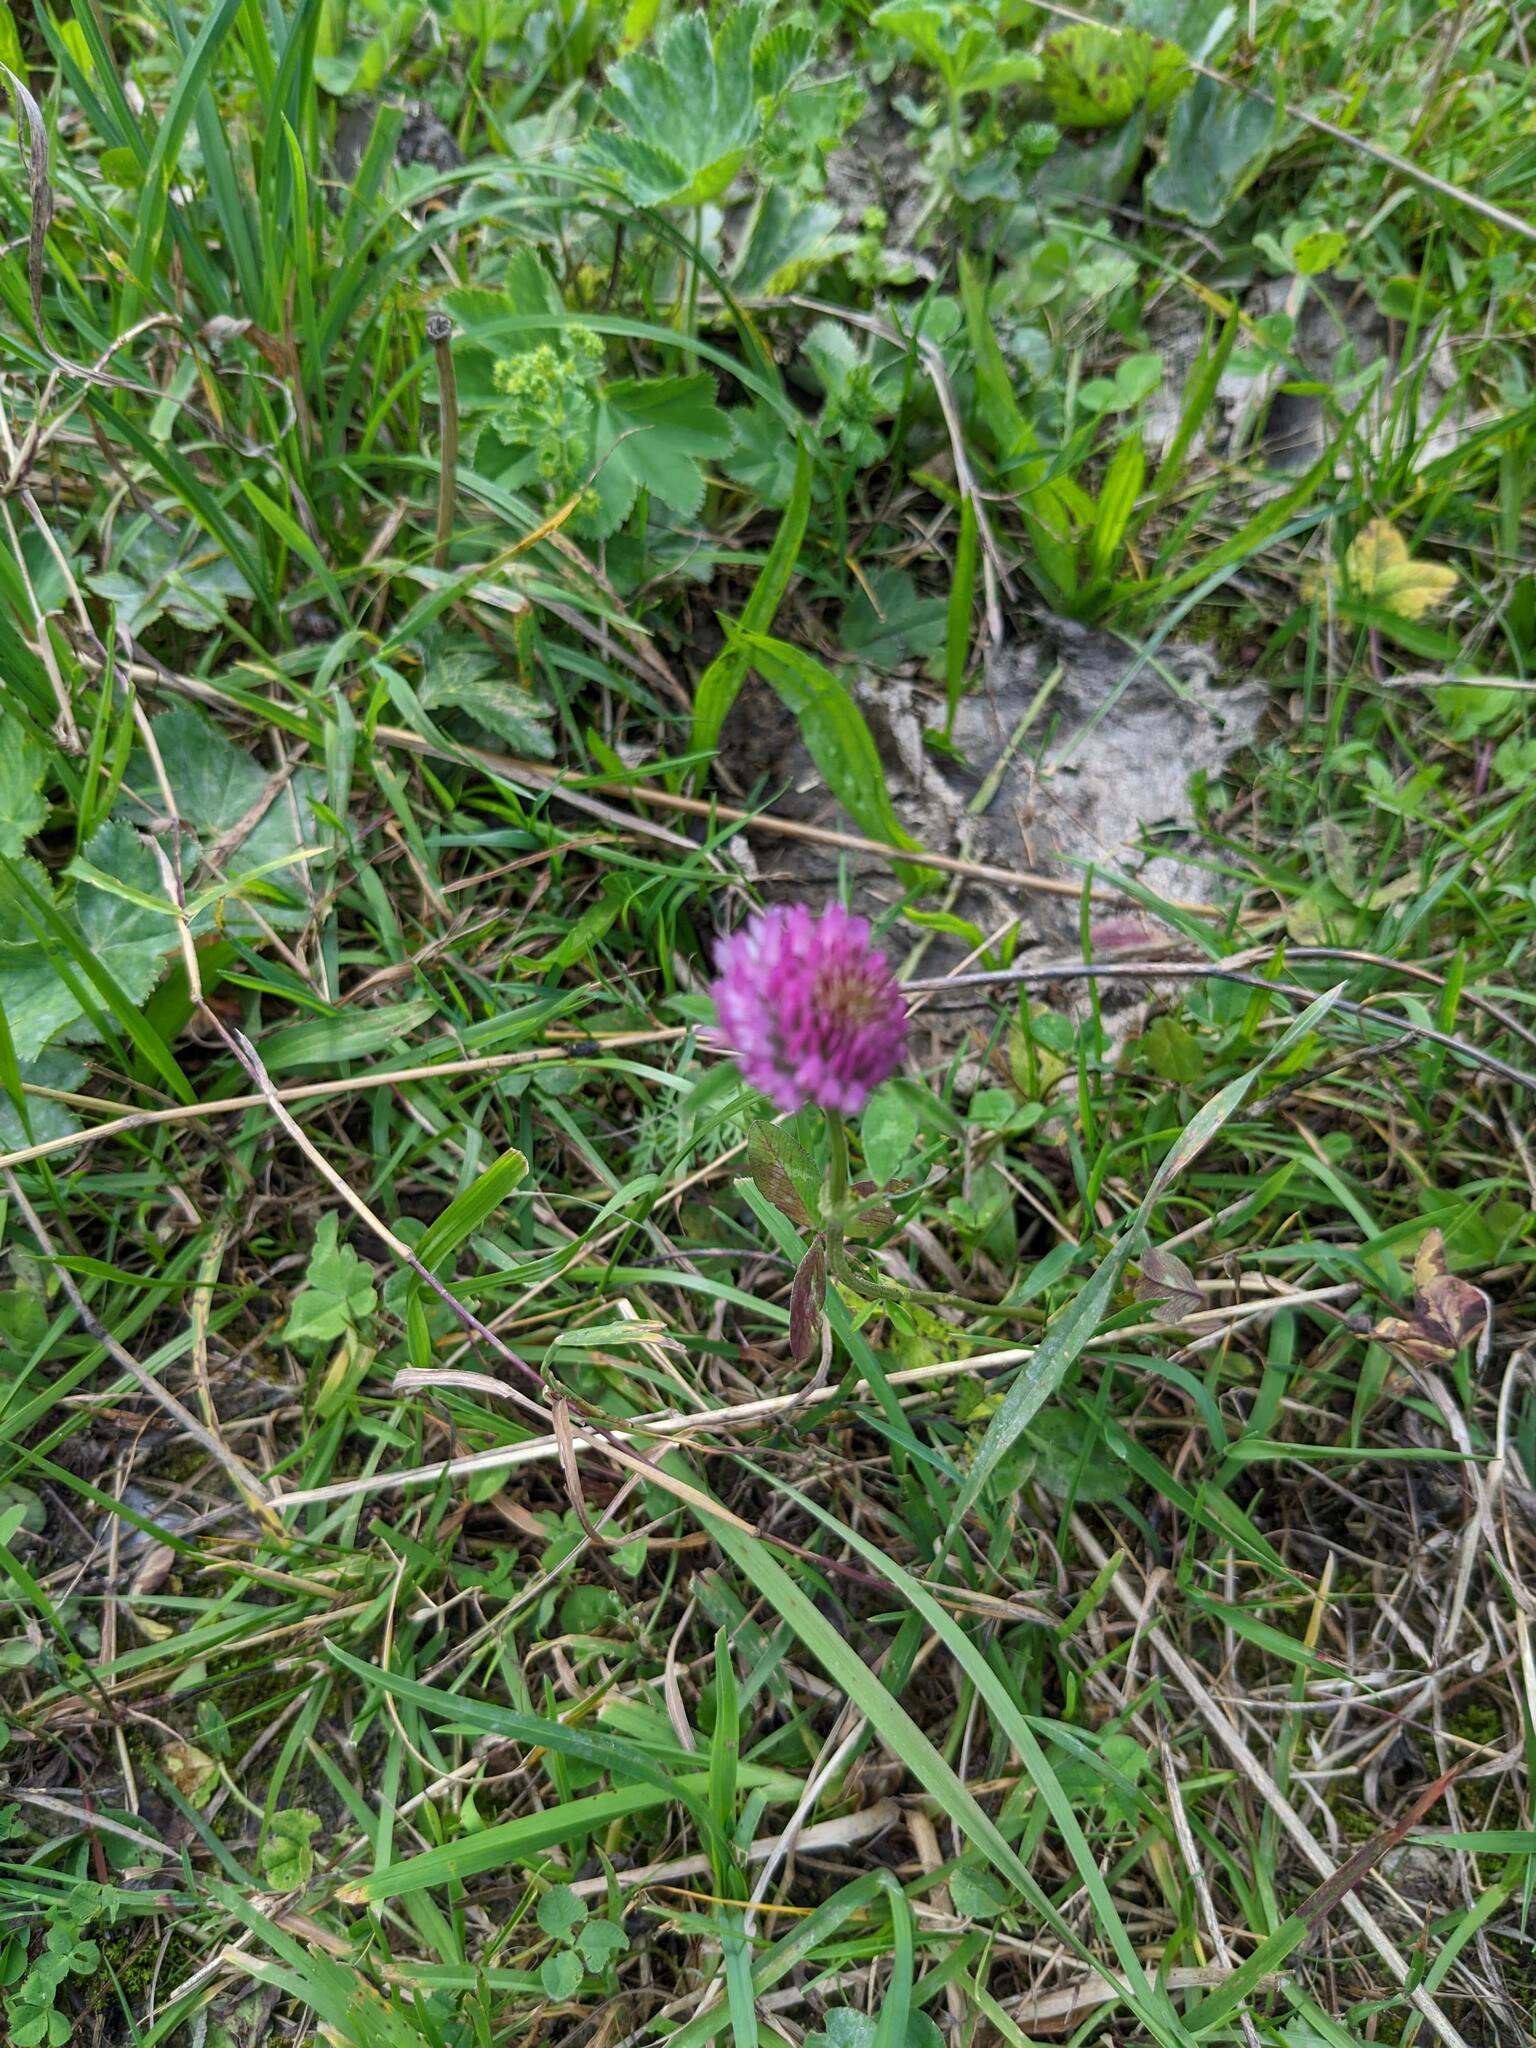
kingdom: Plantae
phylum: Tracheophyta
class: Magnoliopsida
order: Fabales
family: Fabaceae
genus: Trifolium
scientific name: Trifolium pratense
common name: Red clover
